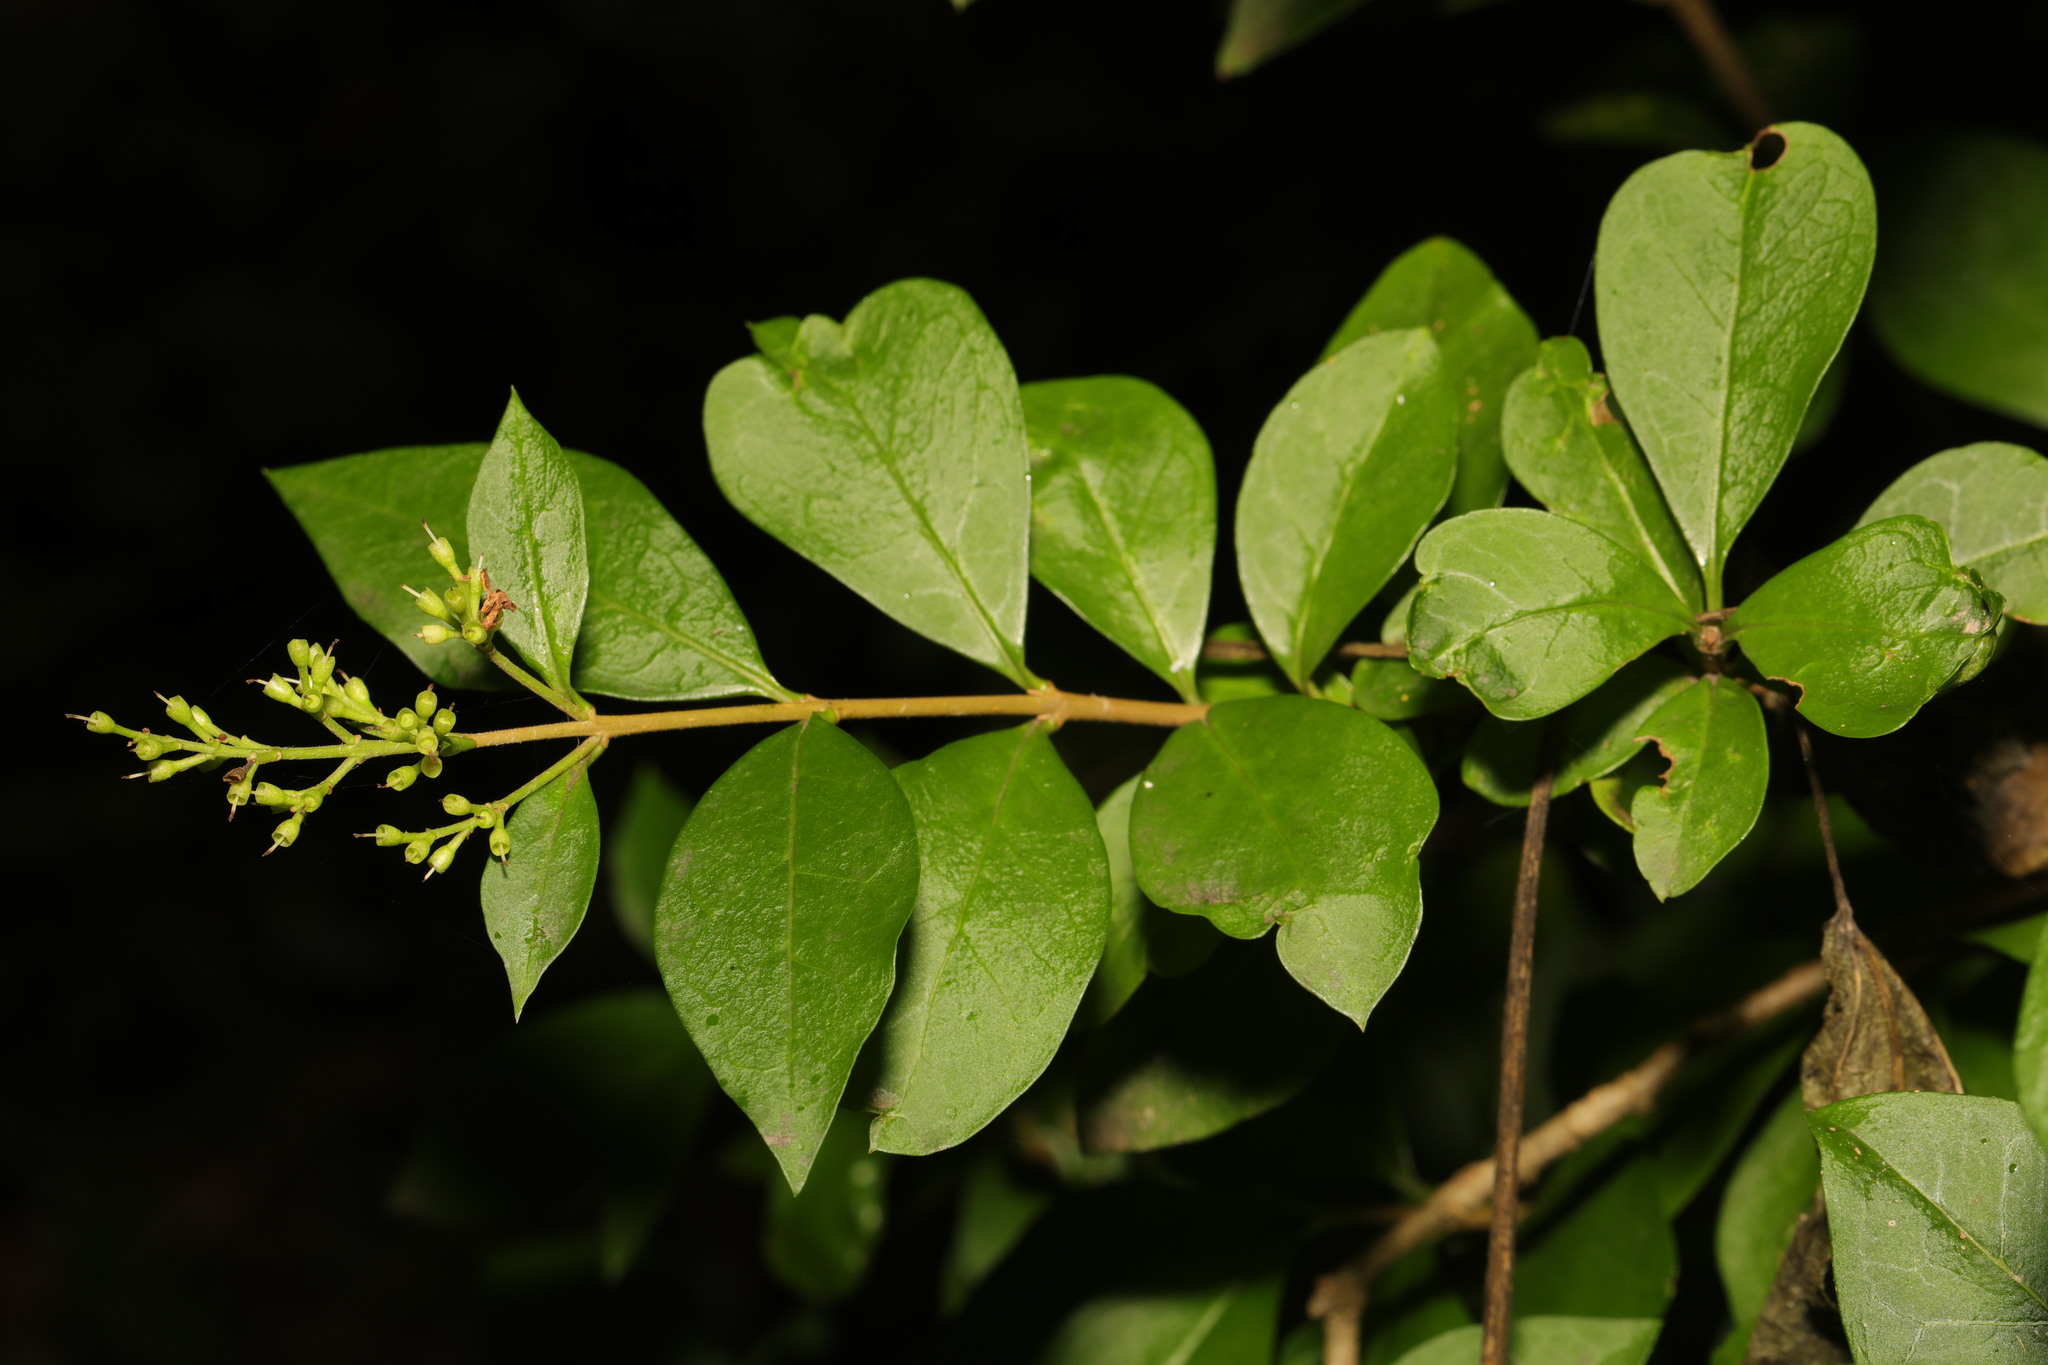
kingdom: Plantae
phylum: Tracheophyta
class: Magnoliopsida
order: Lamiales
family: Oleaceae
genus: Ligustrum
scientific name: Ligustrum ovalifolium
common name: California privet
